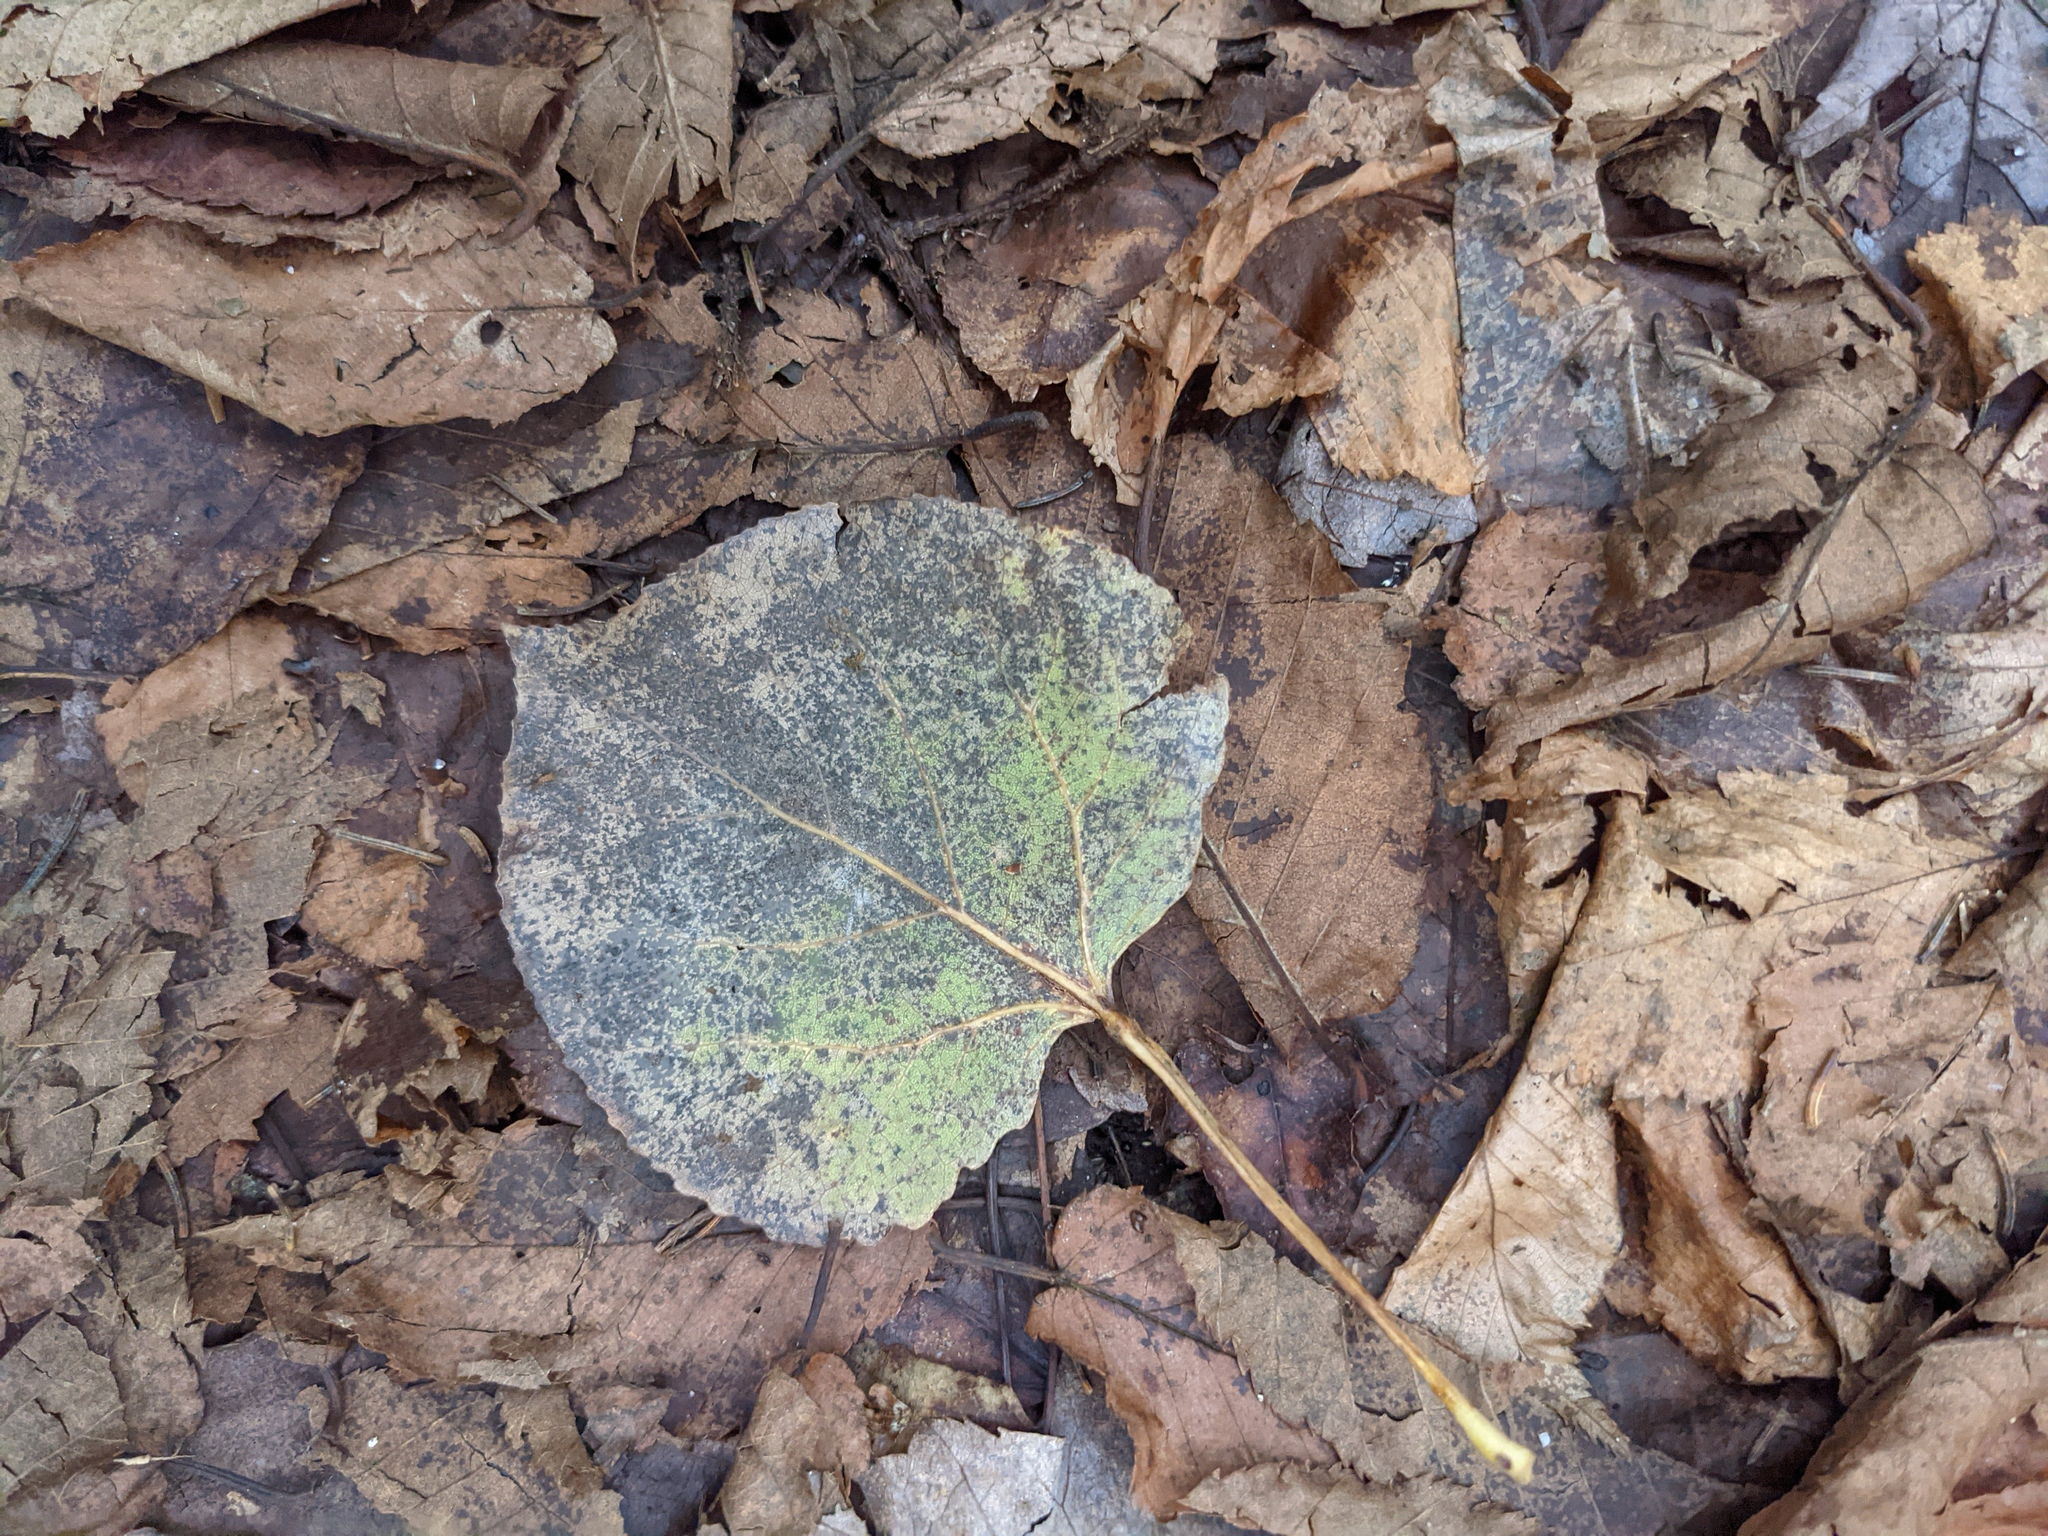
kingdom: Plantae
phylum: Tracheophyta
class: Magnoliopsida
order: Malpighiales
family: Salicaceae
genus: Populus
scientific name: Populus tremuloides
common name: Quaking aspen
